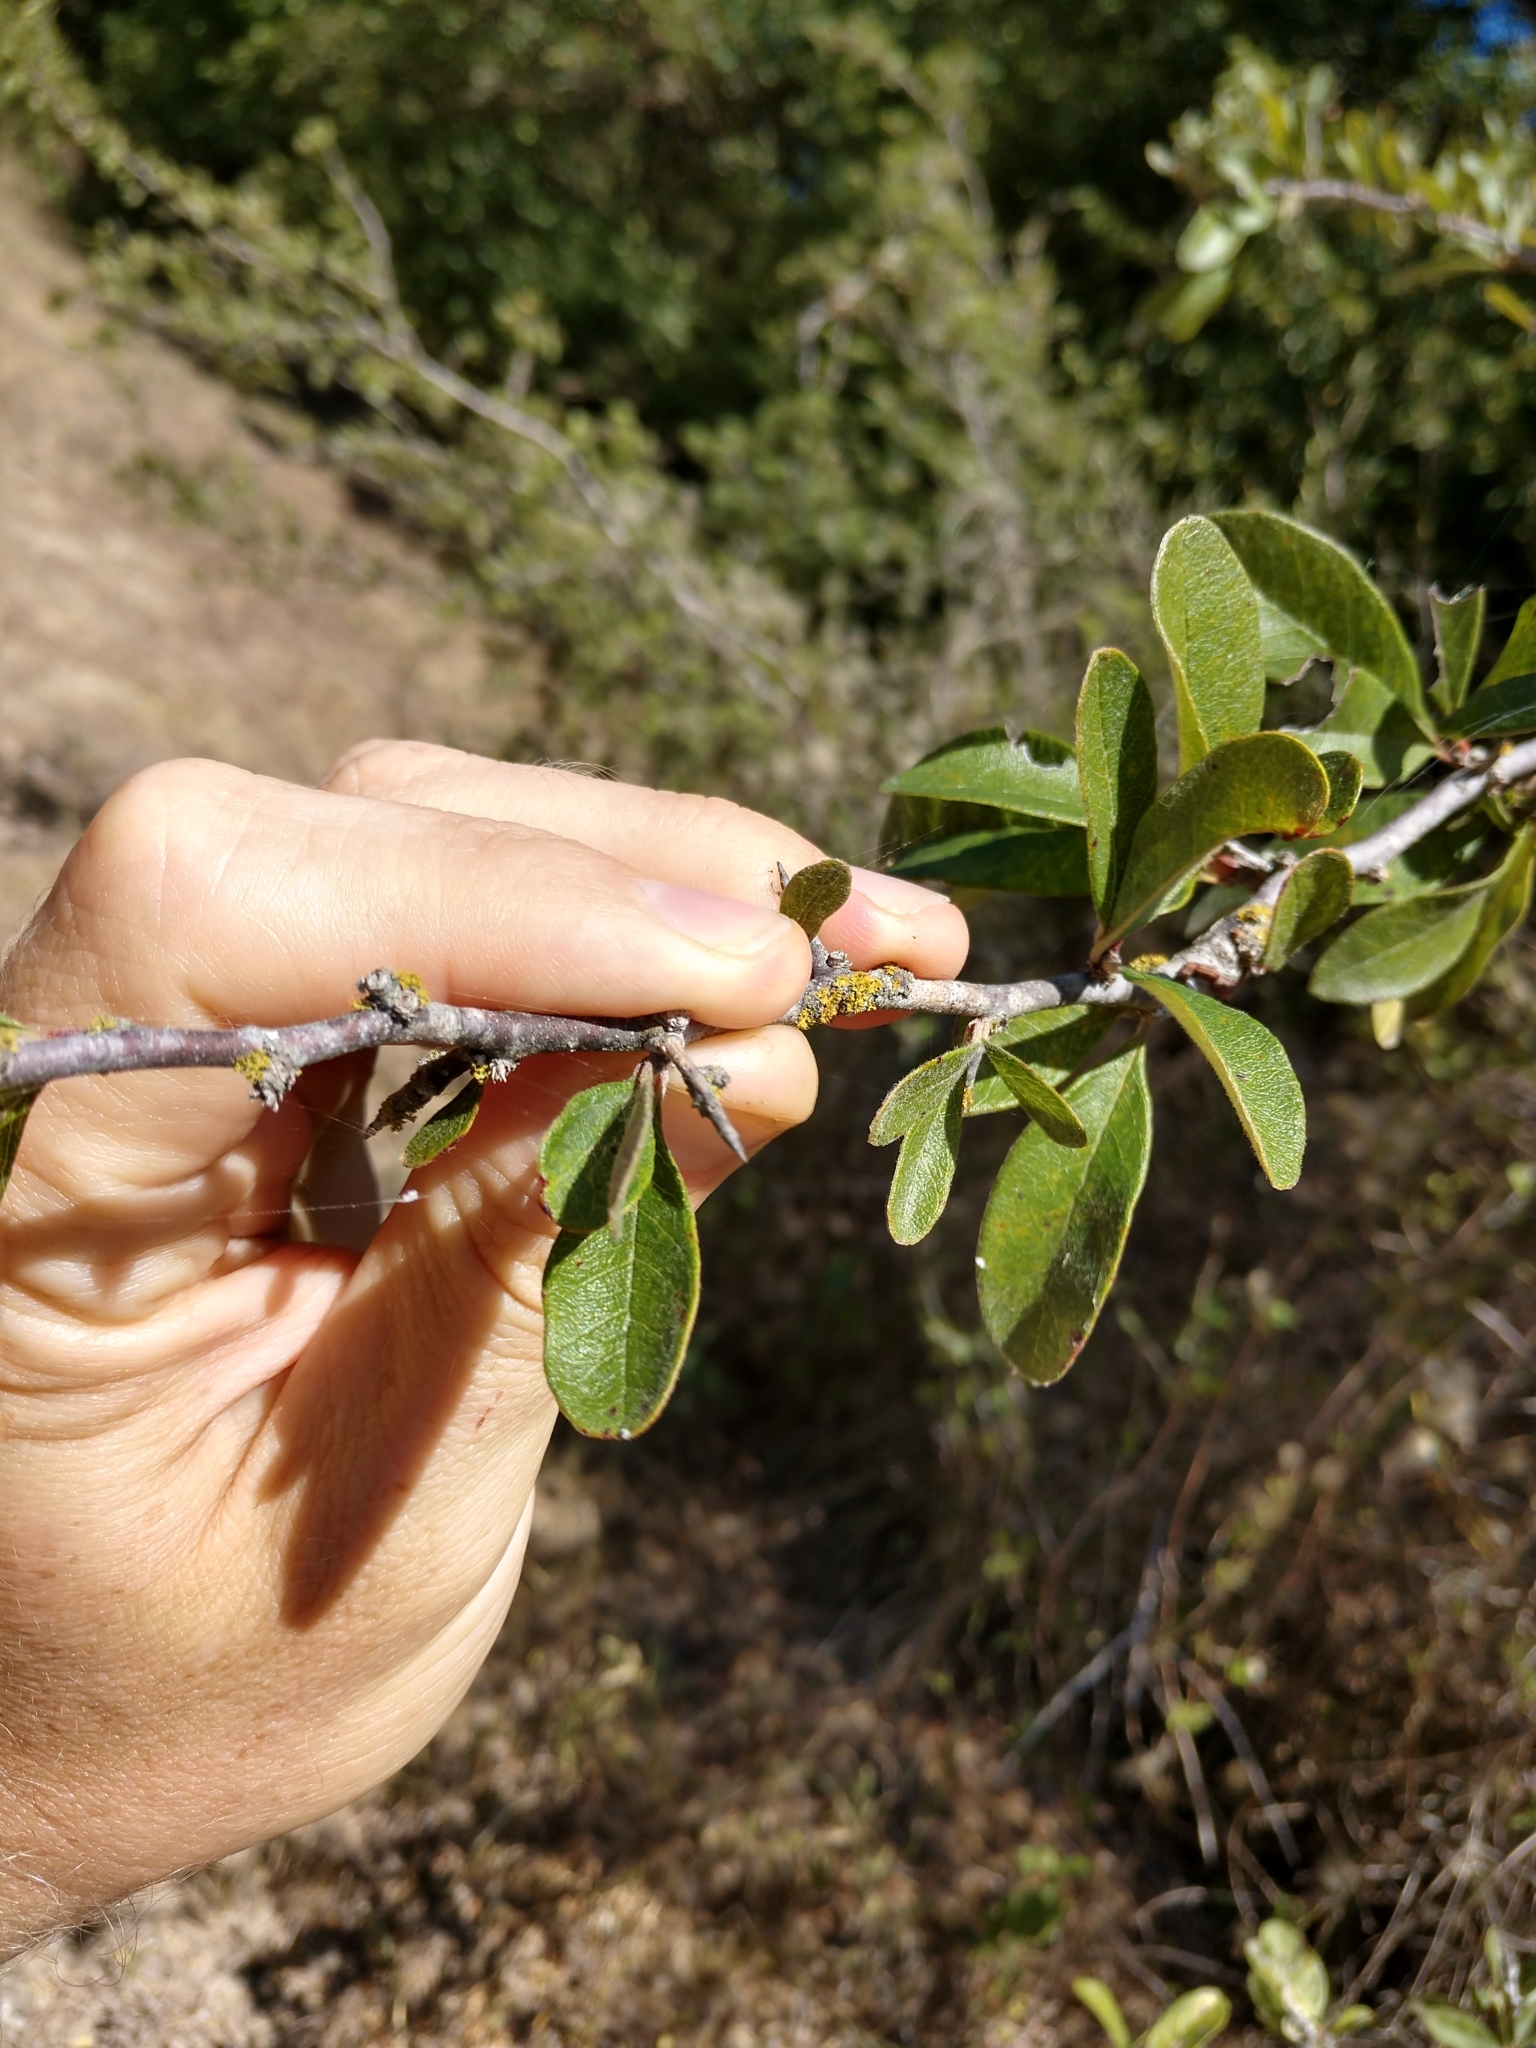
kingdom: Plantae
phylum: Tracheophyta
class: Magnoliopsida
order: Ericales
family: Sapotaceae
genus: Sideroxylon
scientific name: Sideroxylon lanuginosum
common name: Chittamwood
